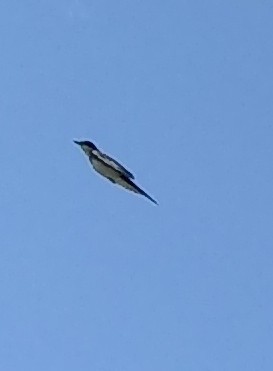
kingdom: Animalia
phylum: Chordata
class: Aves
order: Passeriformes
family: Tyrannidae
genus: Tyrannus
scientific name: Tyrannus tyrannus
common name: Eastern kingbird
